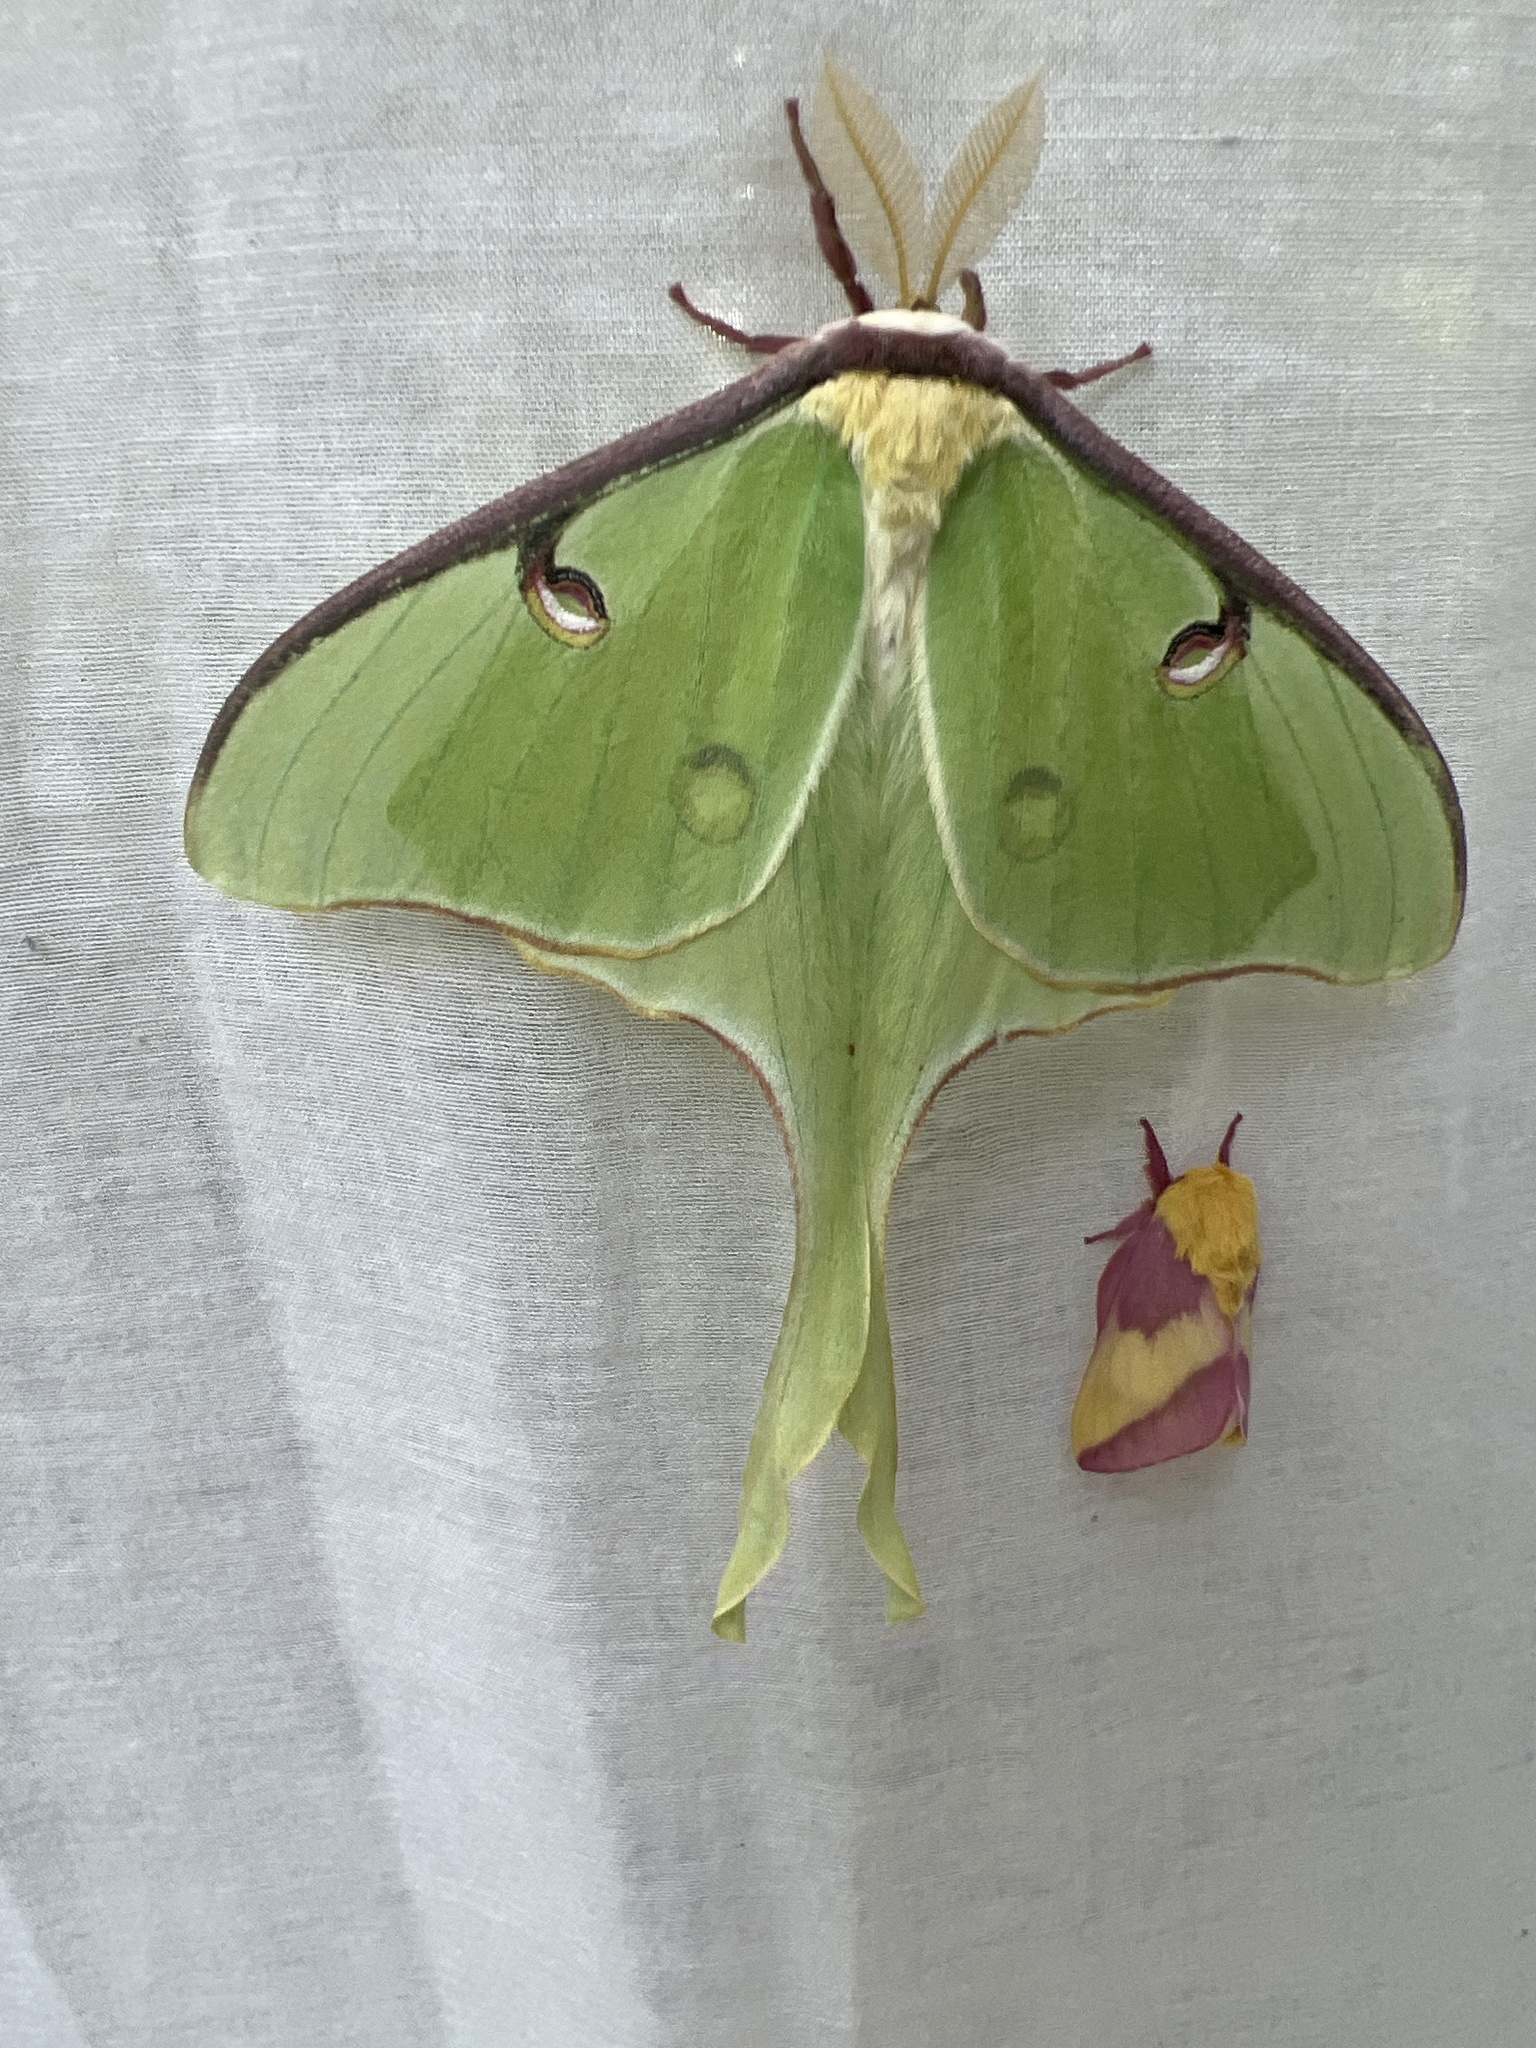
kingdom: Animalia
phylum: Arthropoda
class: Insecta
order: Lepidoptera
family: Saturniidae
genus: Actias
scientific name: Actias luna
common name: Luna moth
